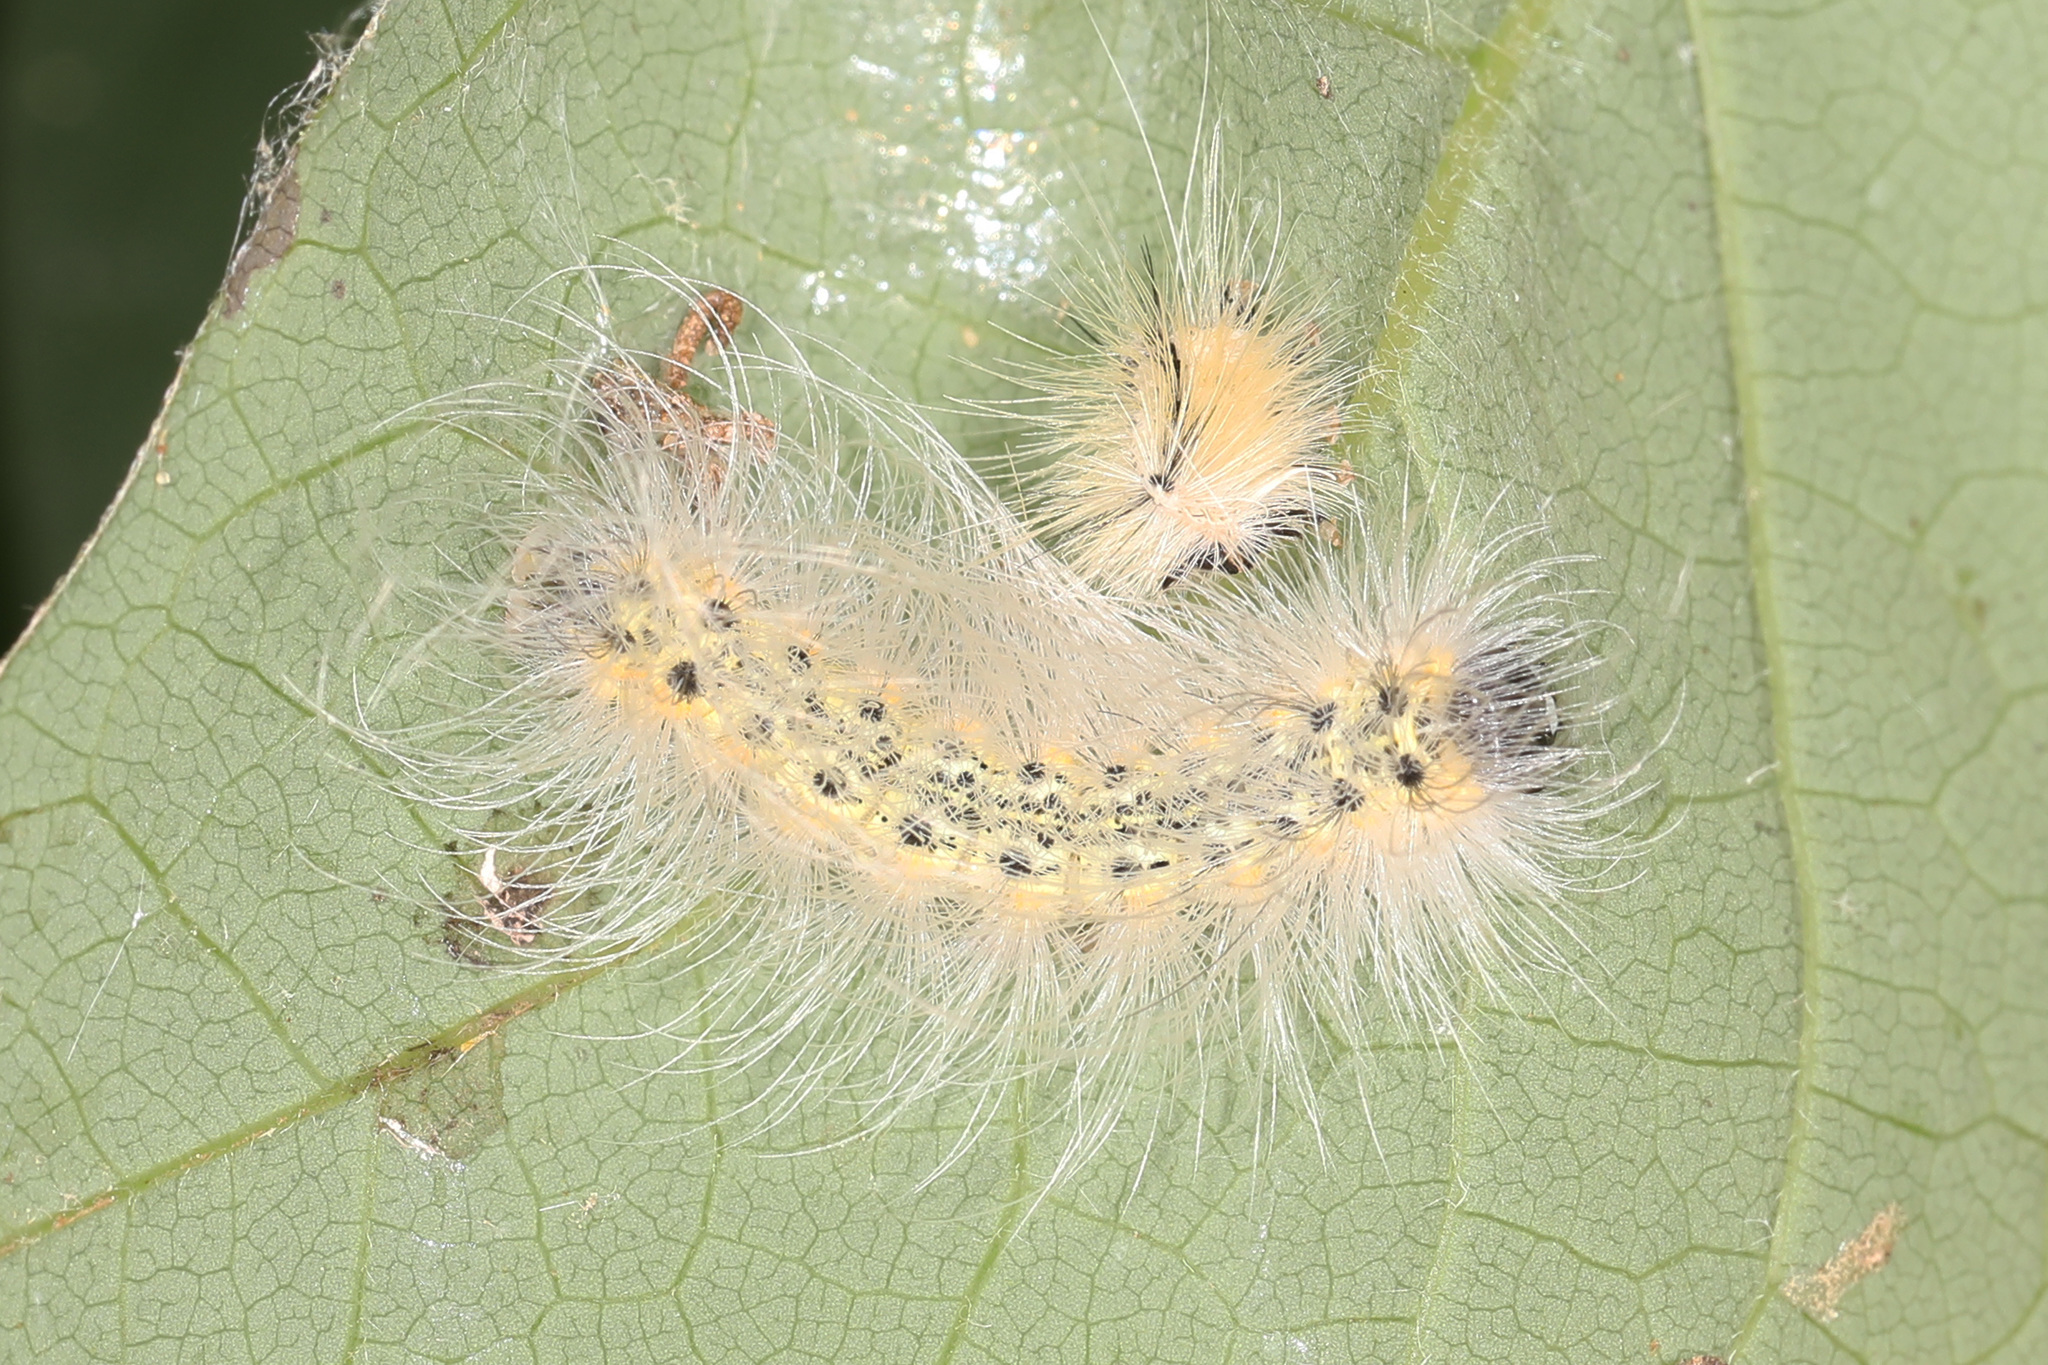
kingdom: Animalia
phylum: Arthropoda
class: Insecta
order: Lepidoptera
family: Erebidae
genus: Hyphantria
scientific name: Hyphantria cunea
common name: American white moth
